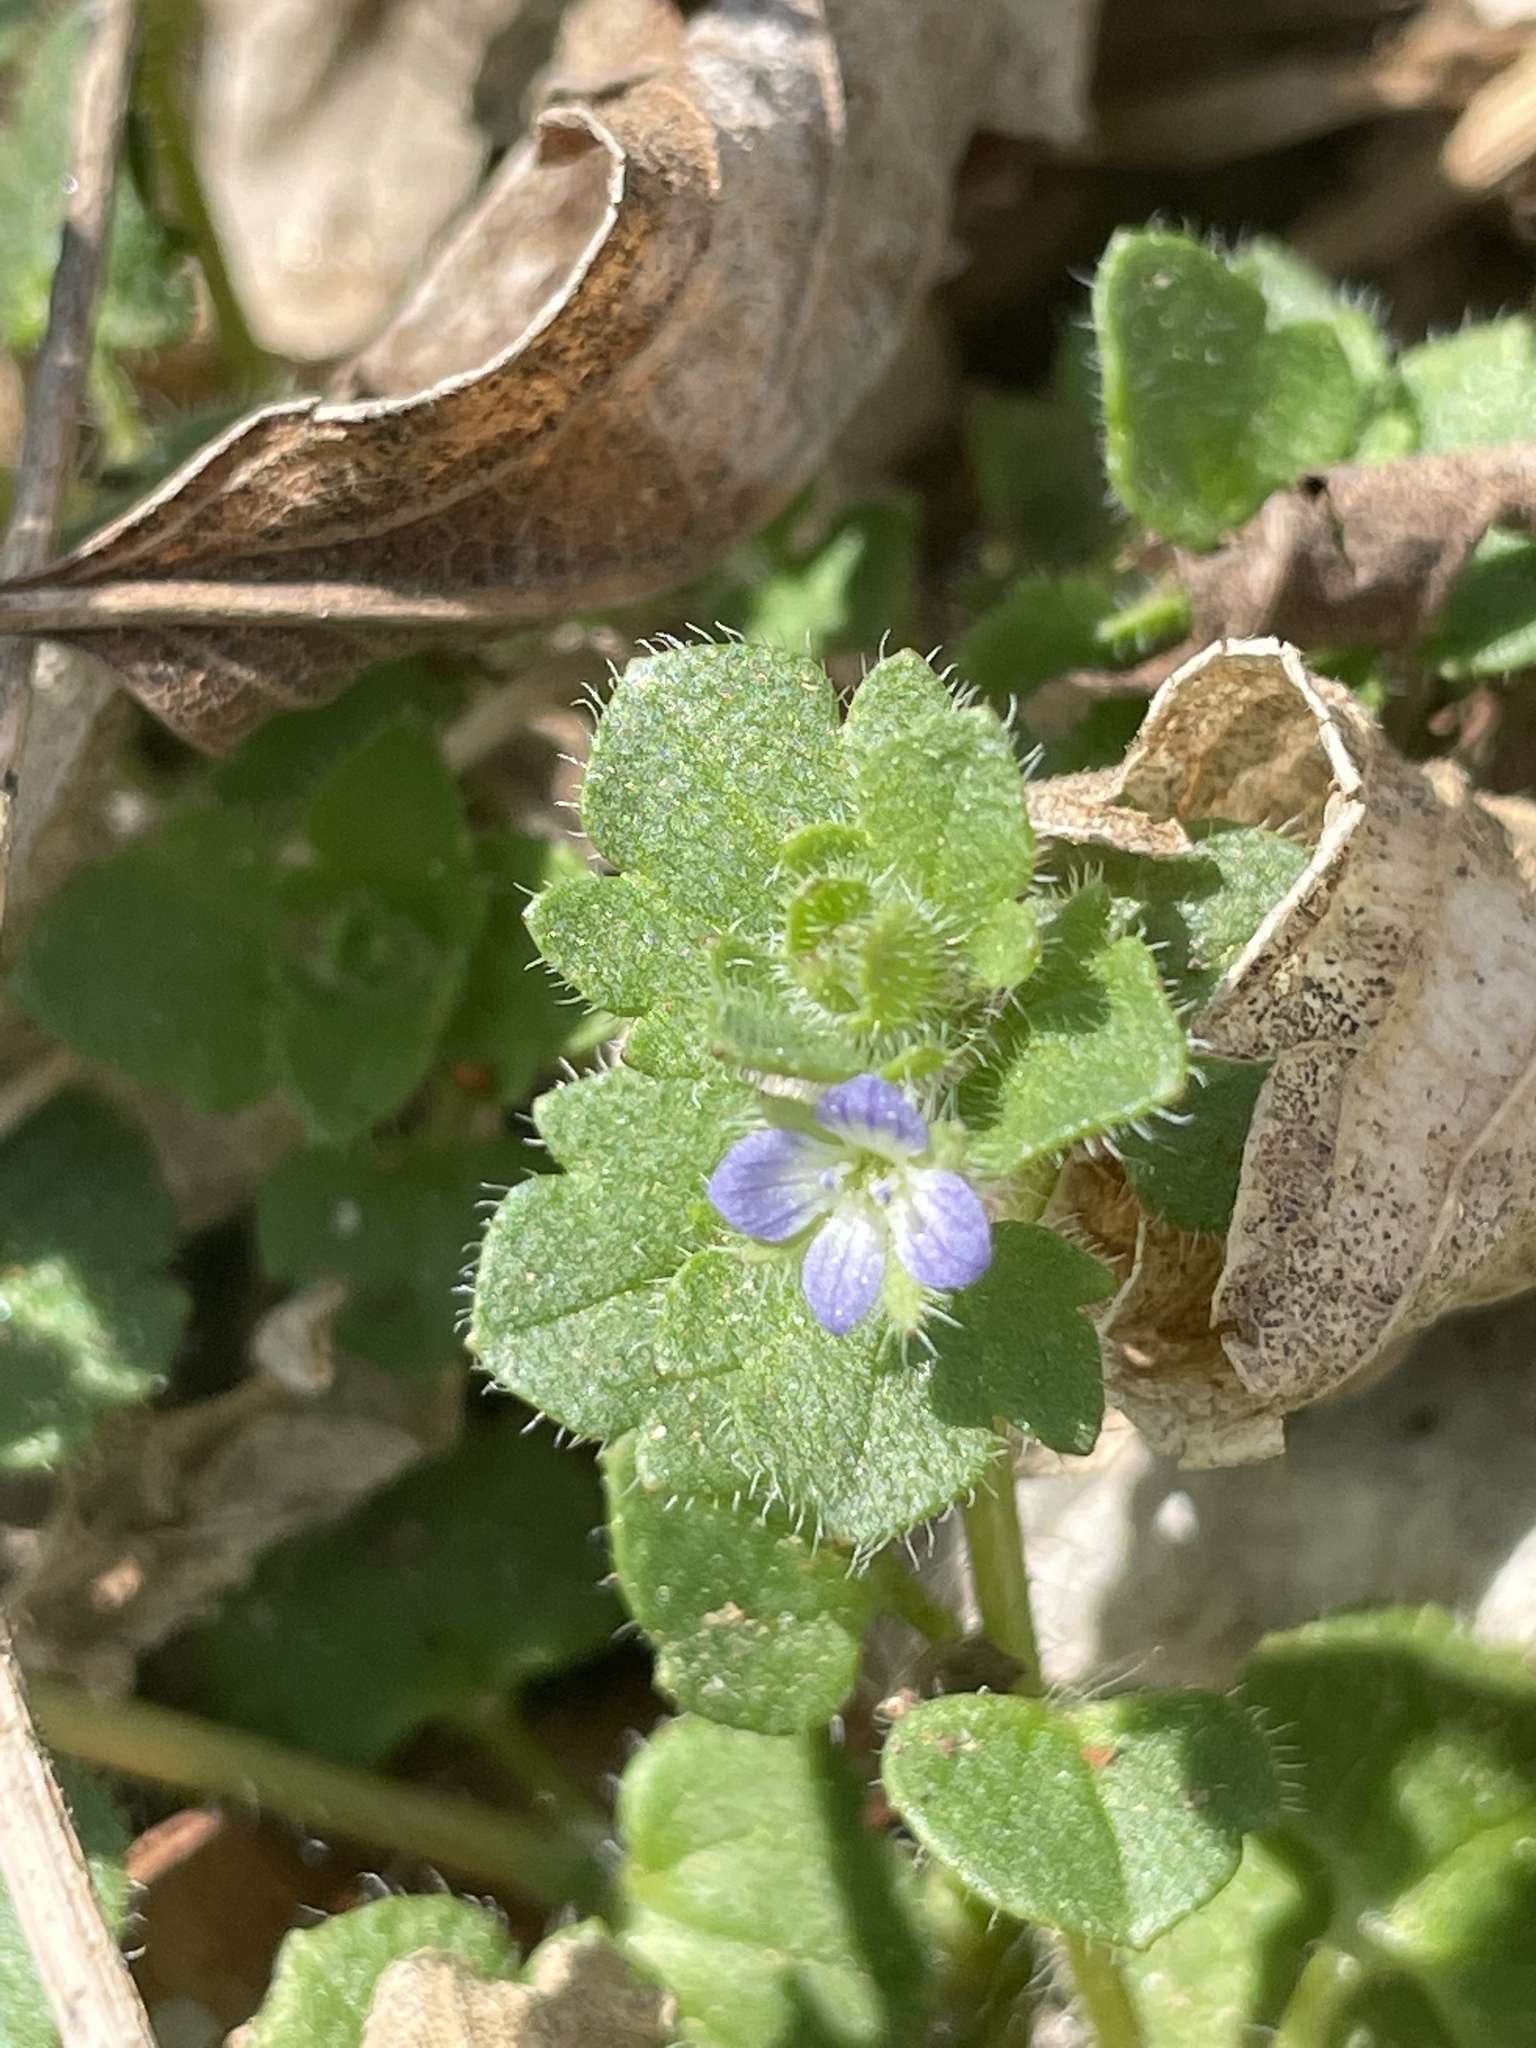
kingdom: Plantae
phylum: Tracheophyta
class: Magnoliopsida
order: Lamiales
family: Plantaginaceae
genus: Veronica
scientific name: Veronica hederifolia
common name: Ivy-leaved speedwell
